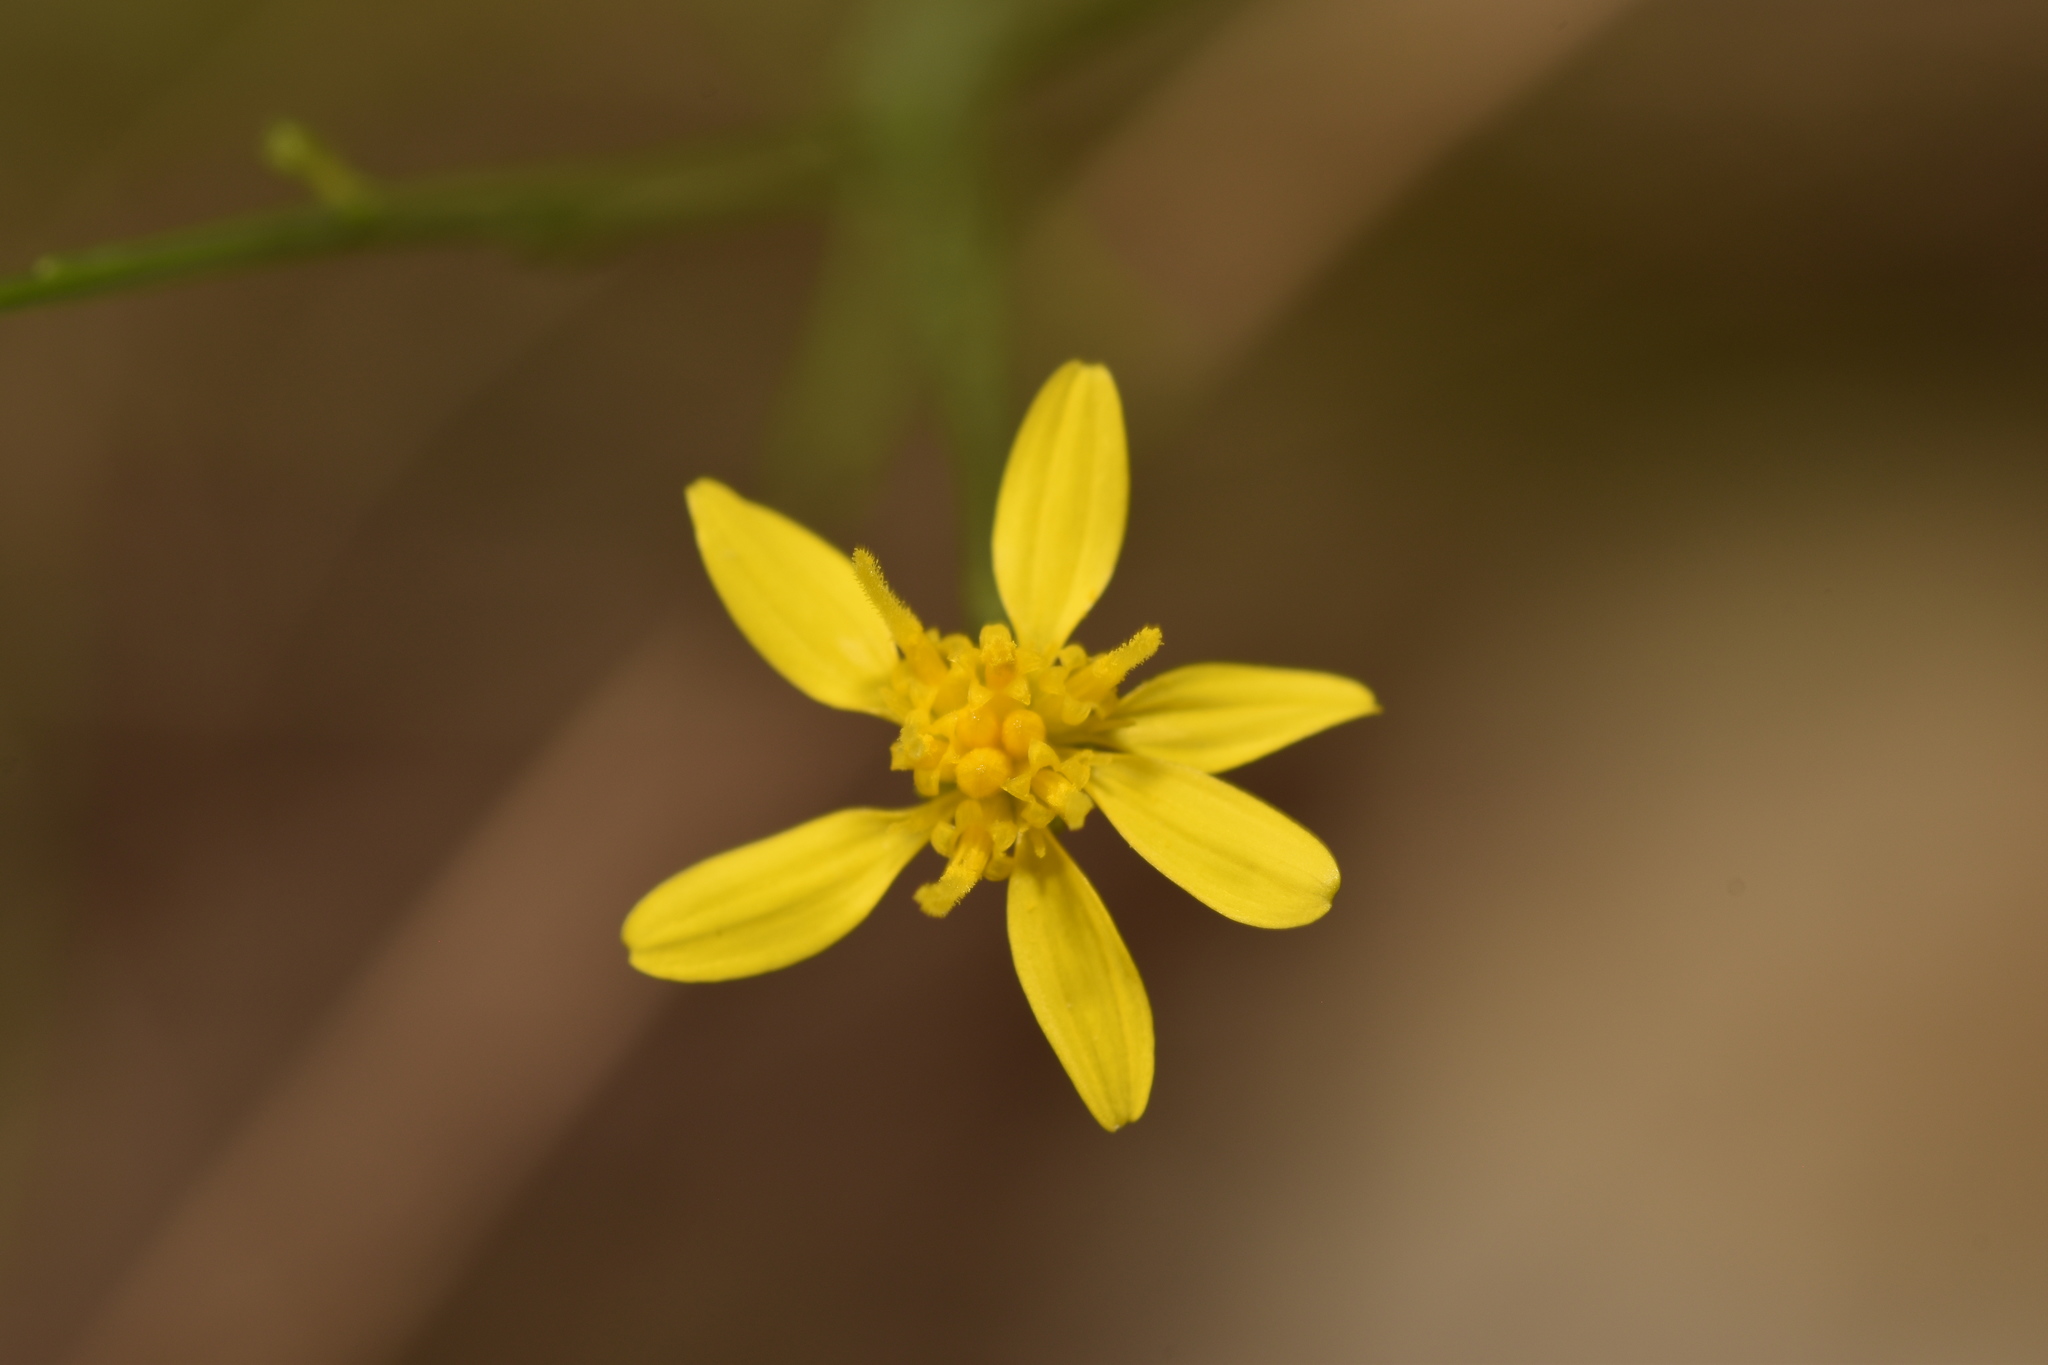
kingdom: Plantae
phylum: Tracheophyta
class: Magnoliopsida
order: Asterales
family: Asteraceae
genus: Gutierrezia
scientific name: Gutierrezia texana
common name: Texas snakeweed
